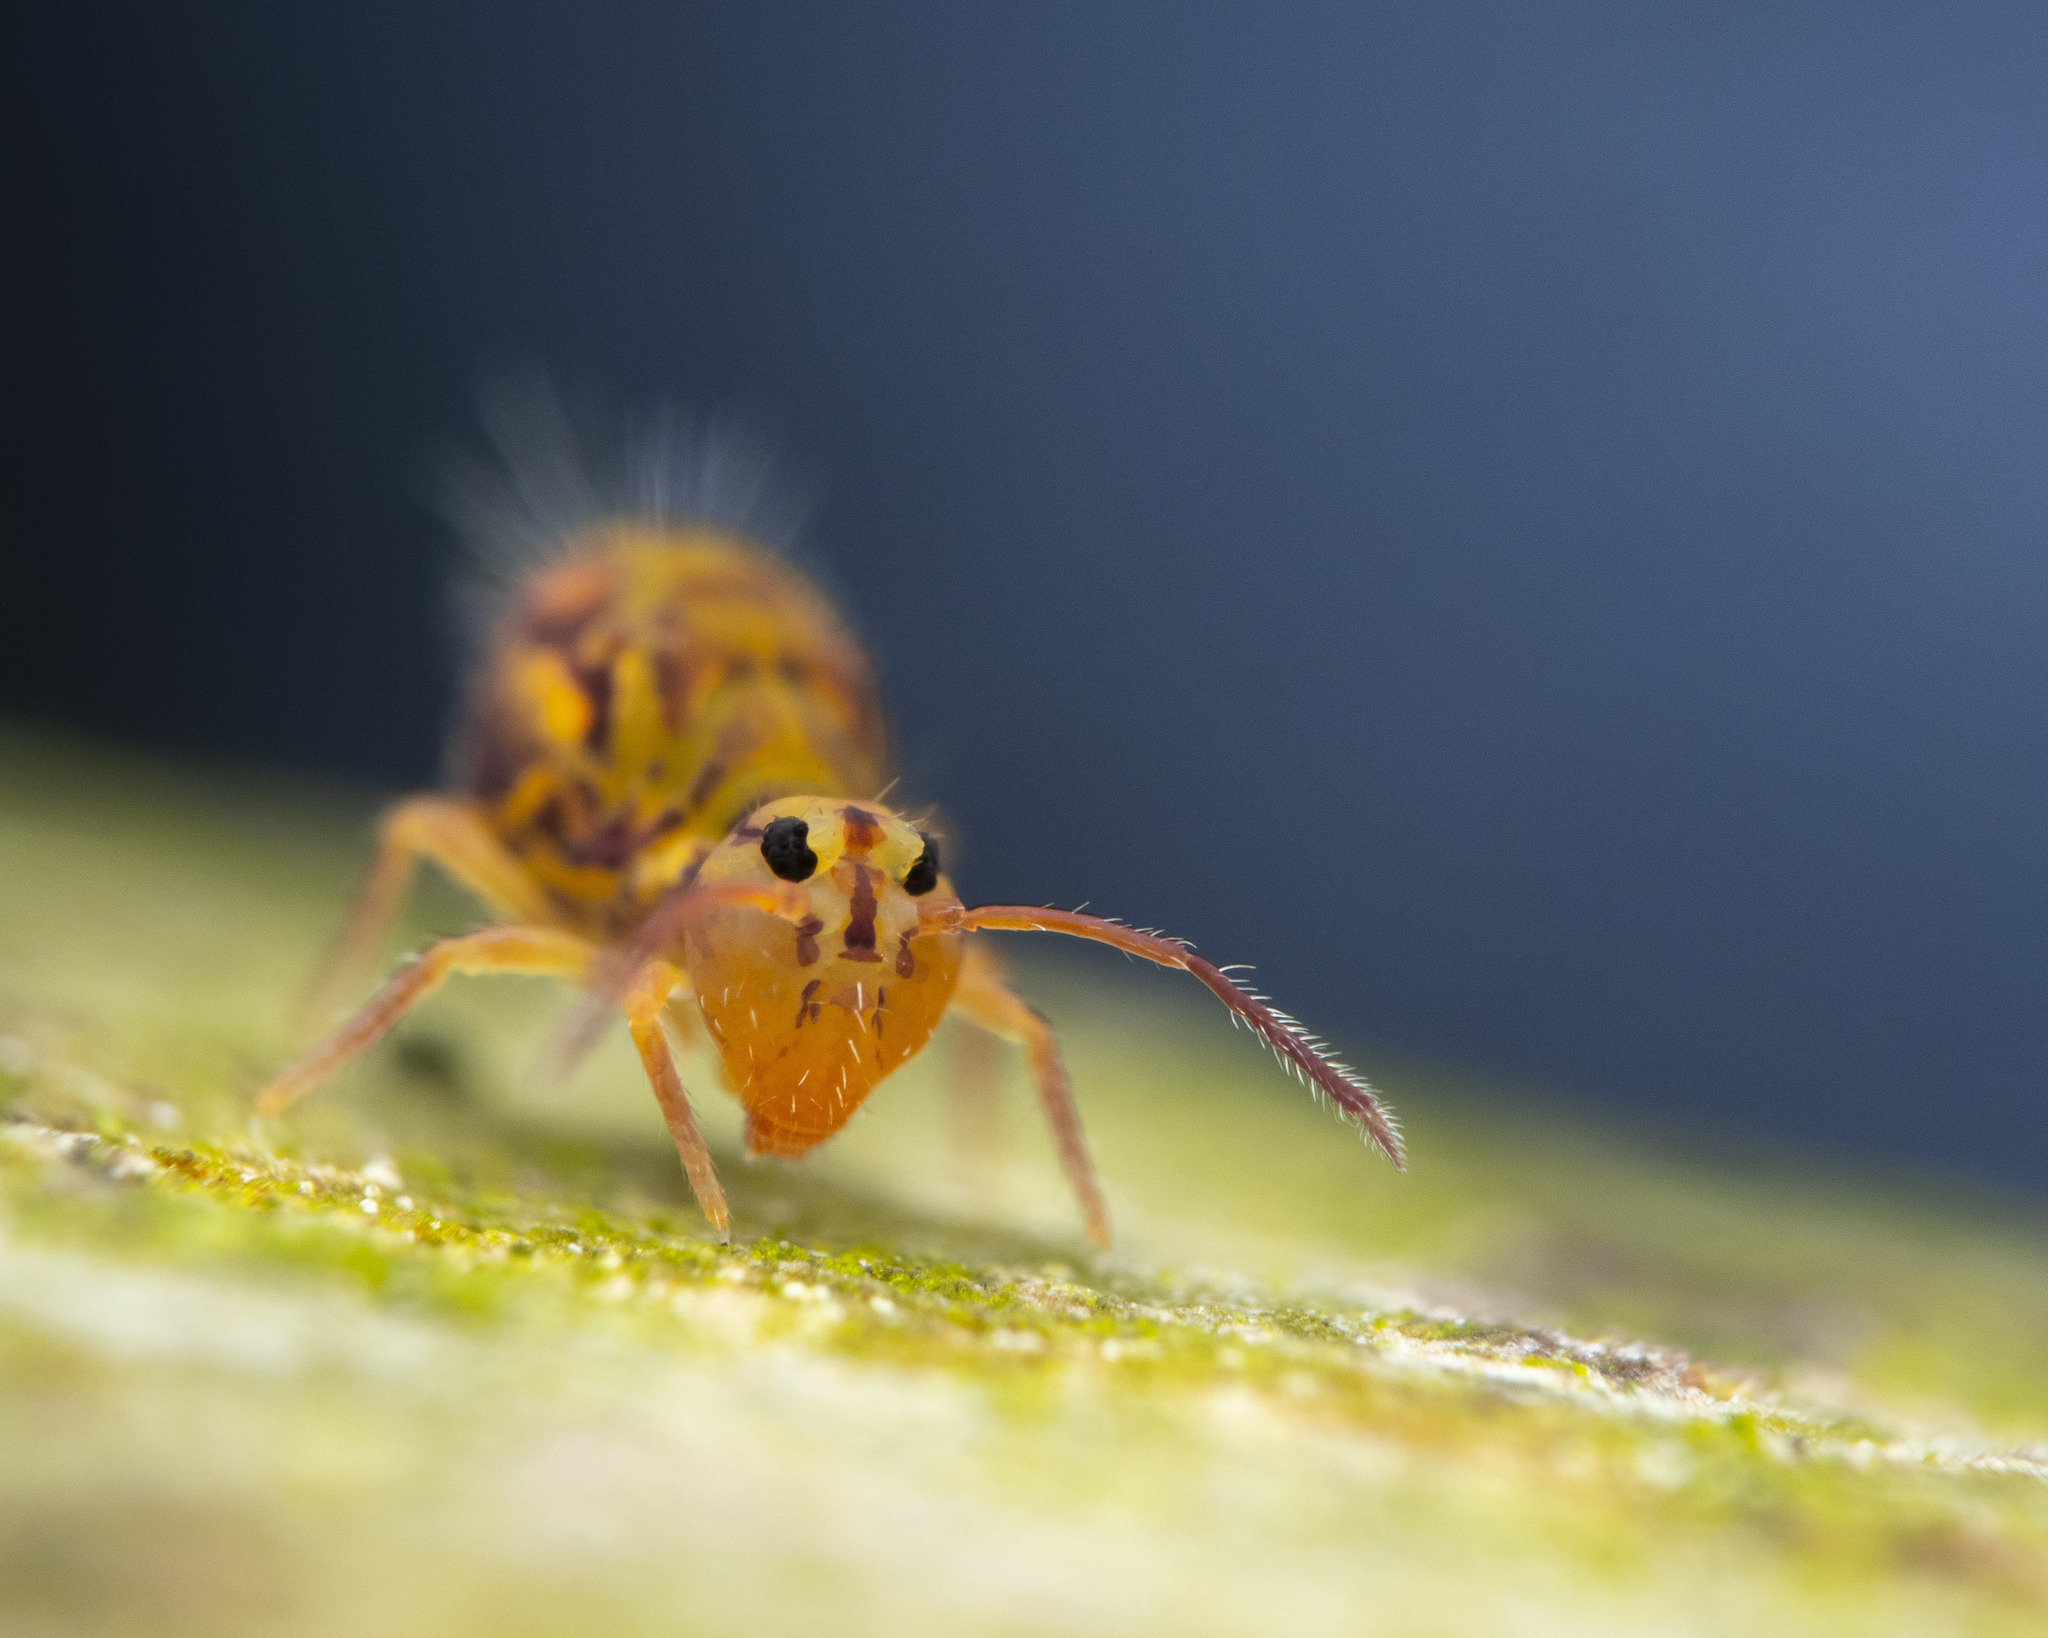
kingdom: Animalia
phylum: Arthropoda
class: Collembola
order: Symphypleona
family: Dicyrtomidae
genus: Dicyrtomina
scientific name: Dicyrtomina ornata
